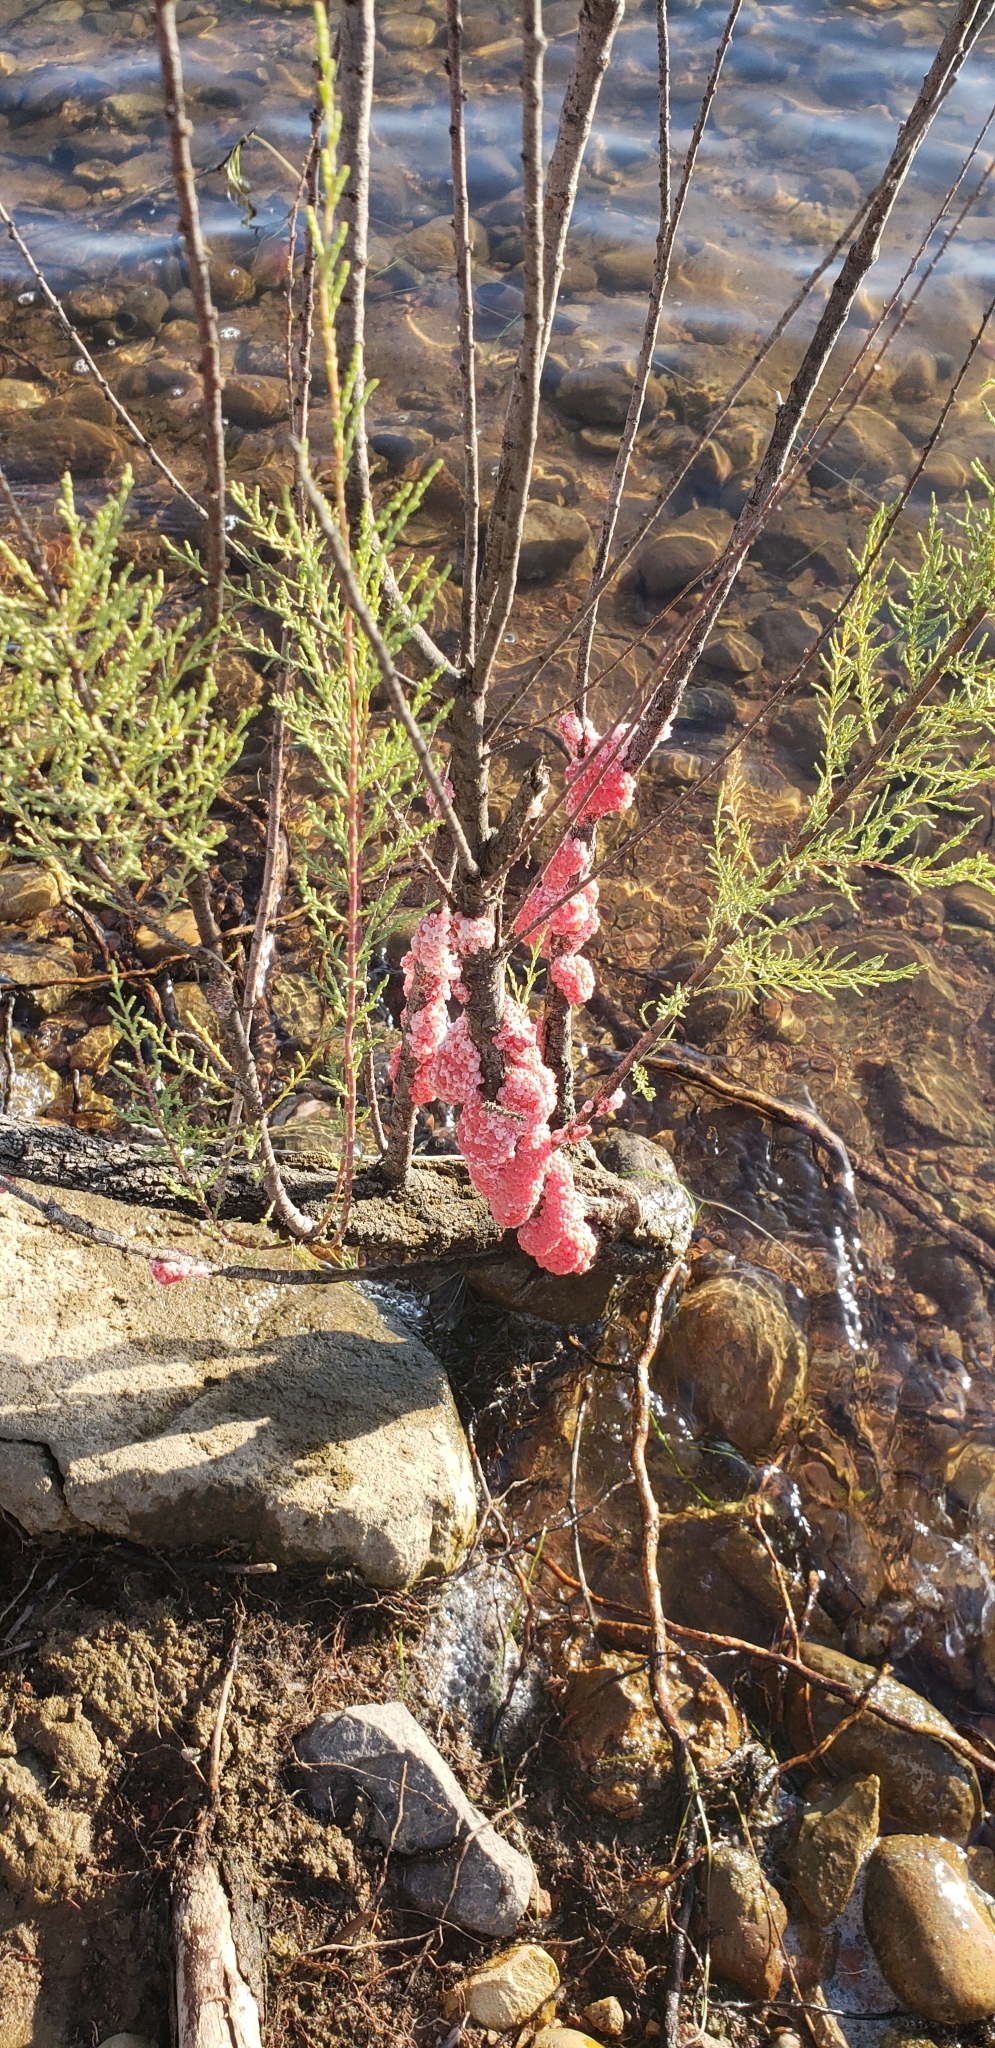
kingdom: Animalia
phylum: Mollusca
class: Gastropoda
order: Architaenioglossa
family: Ampullariidae
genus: Pomacea
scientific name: Pomacea canaliculata
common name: Channeled applesnail
